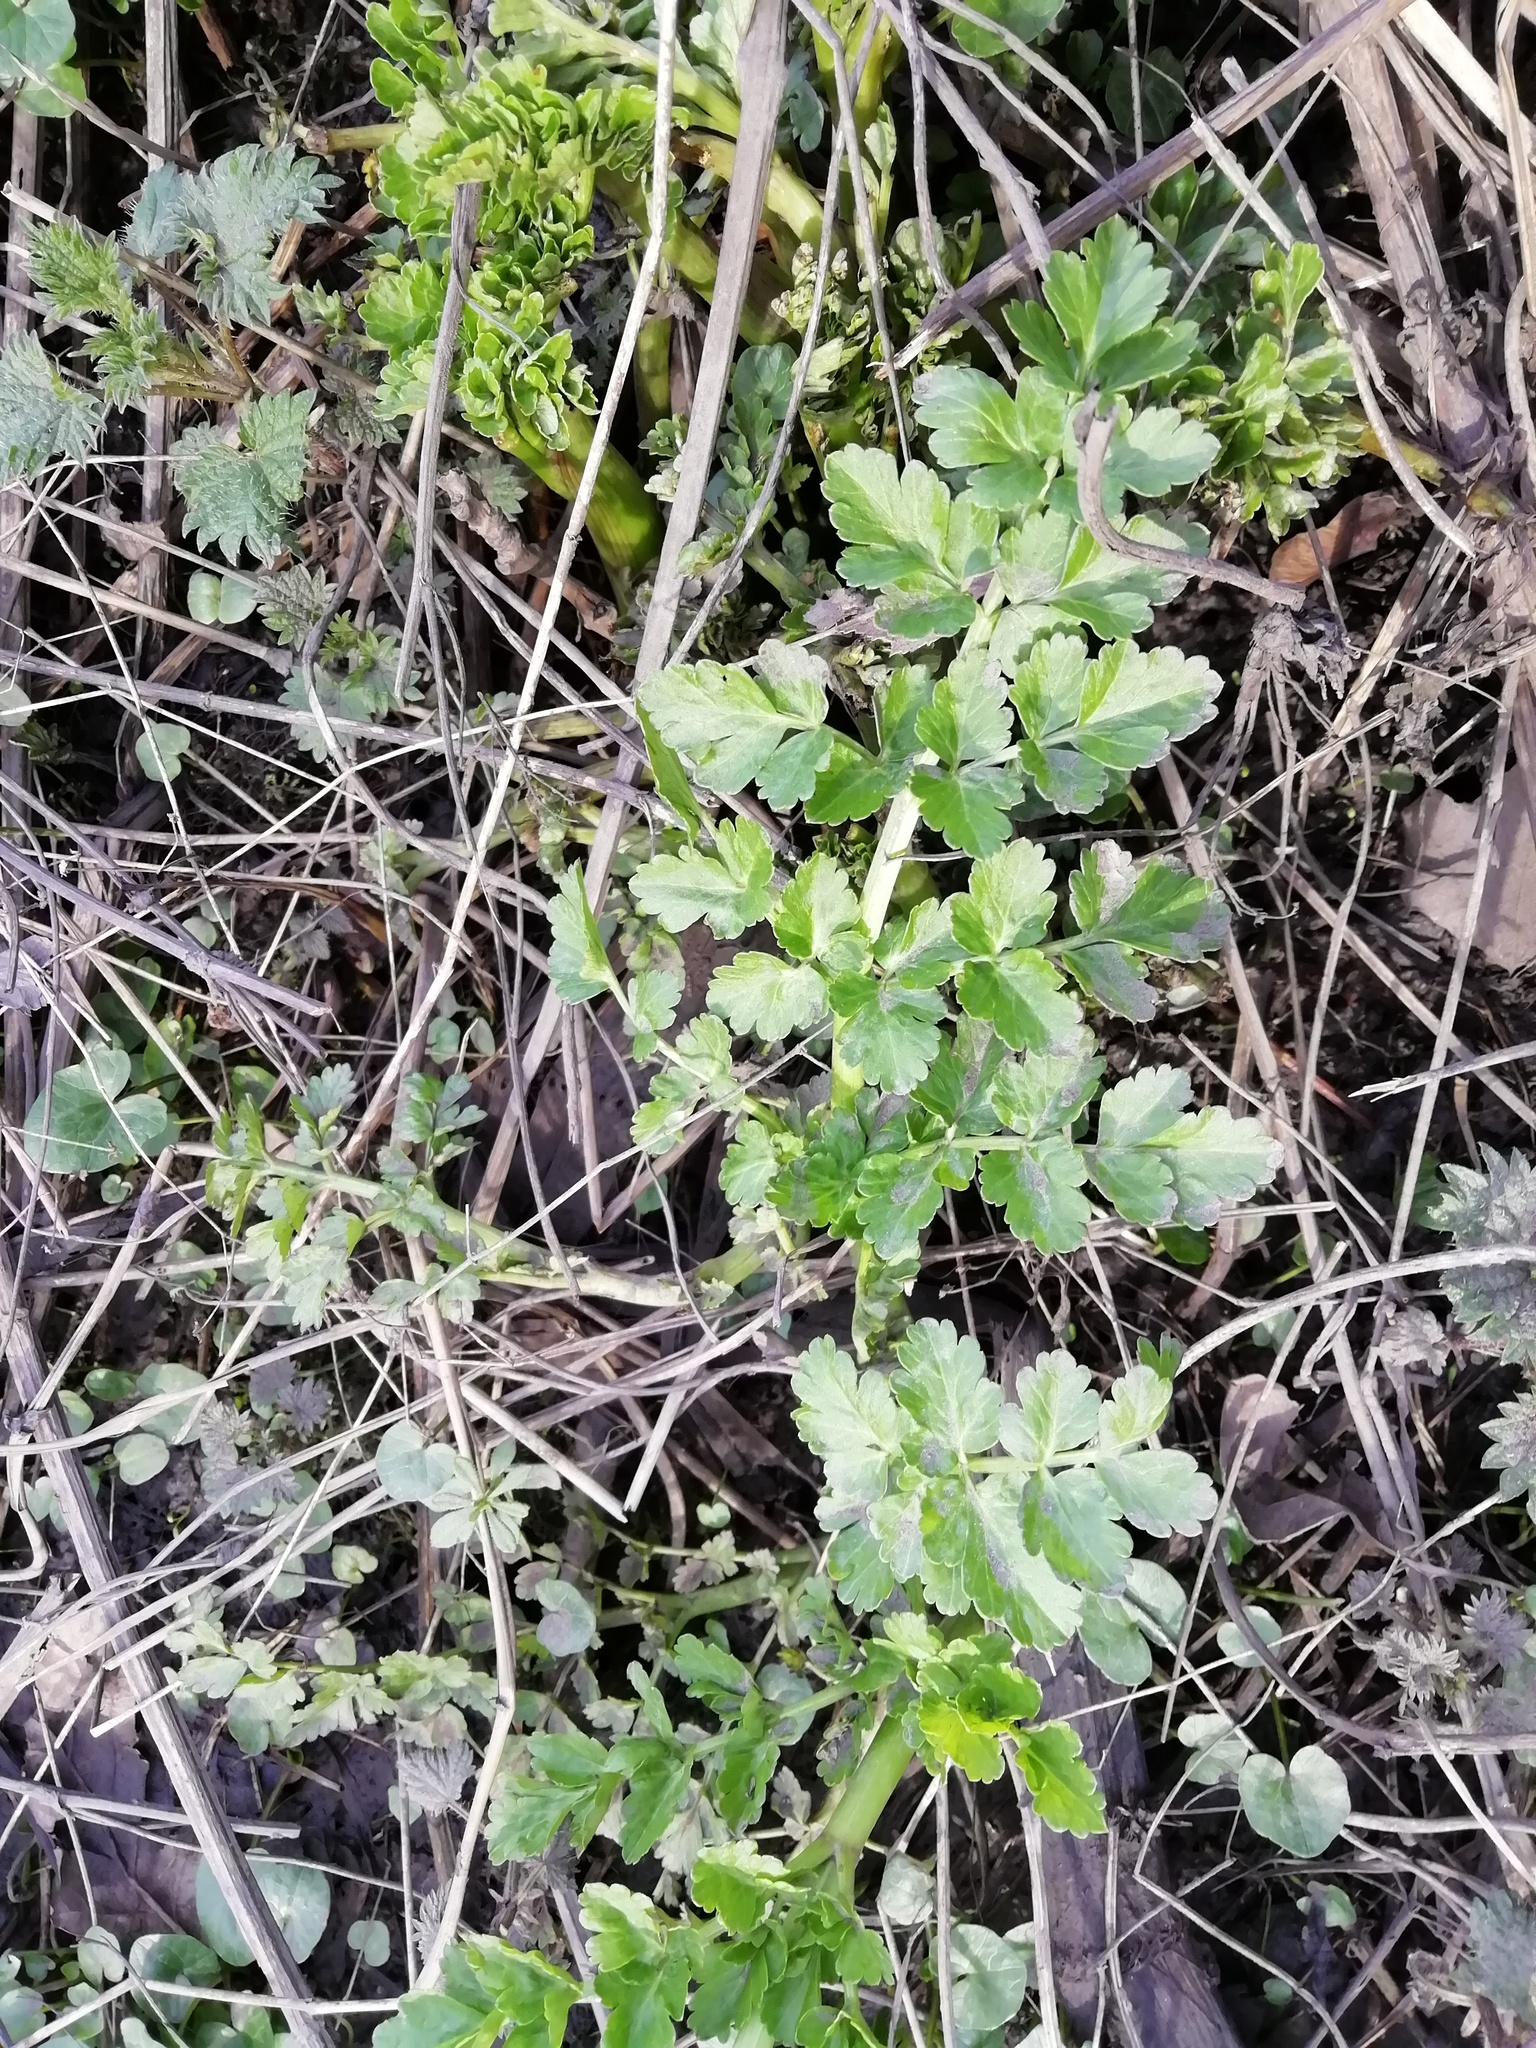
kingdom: Plantae
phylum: Tracheophyta
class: Magnoliopsida
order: Apiales
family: Apiaceae
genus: Oenanthe
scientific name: Oenanthe crocata
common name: Hemlock water-dropwort
